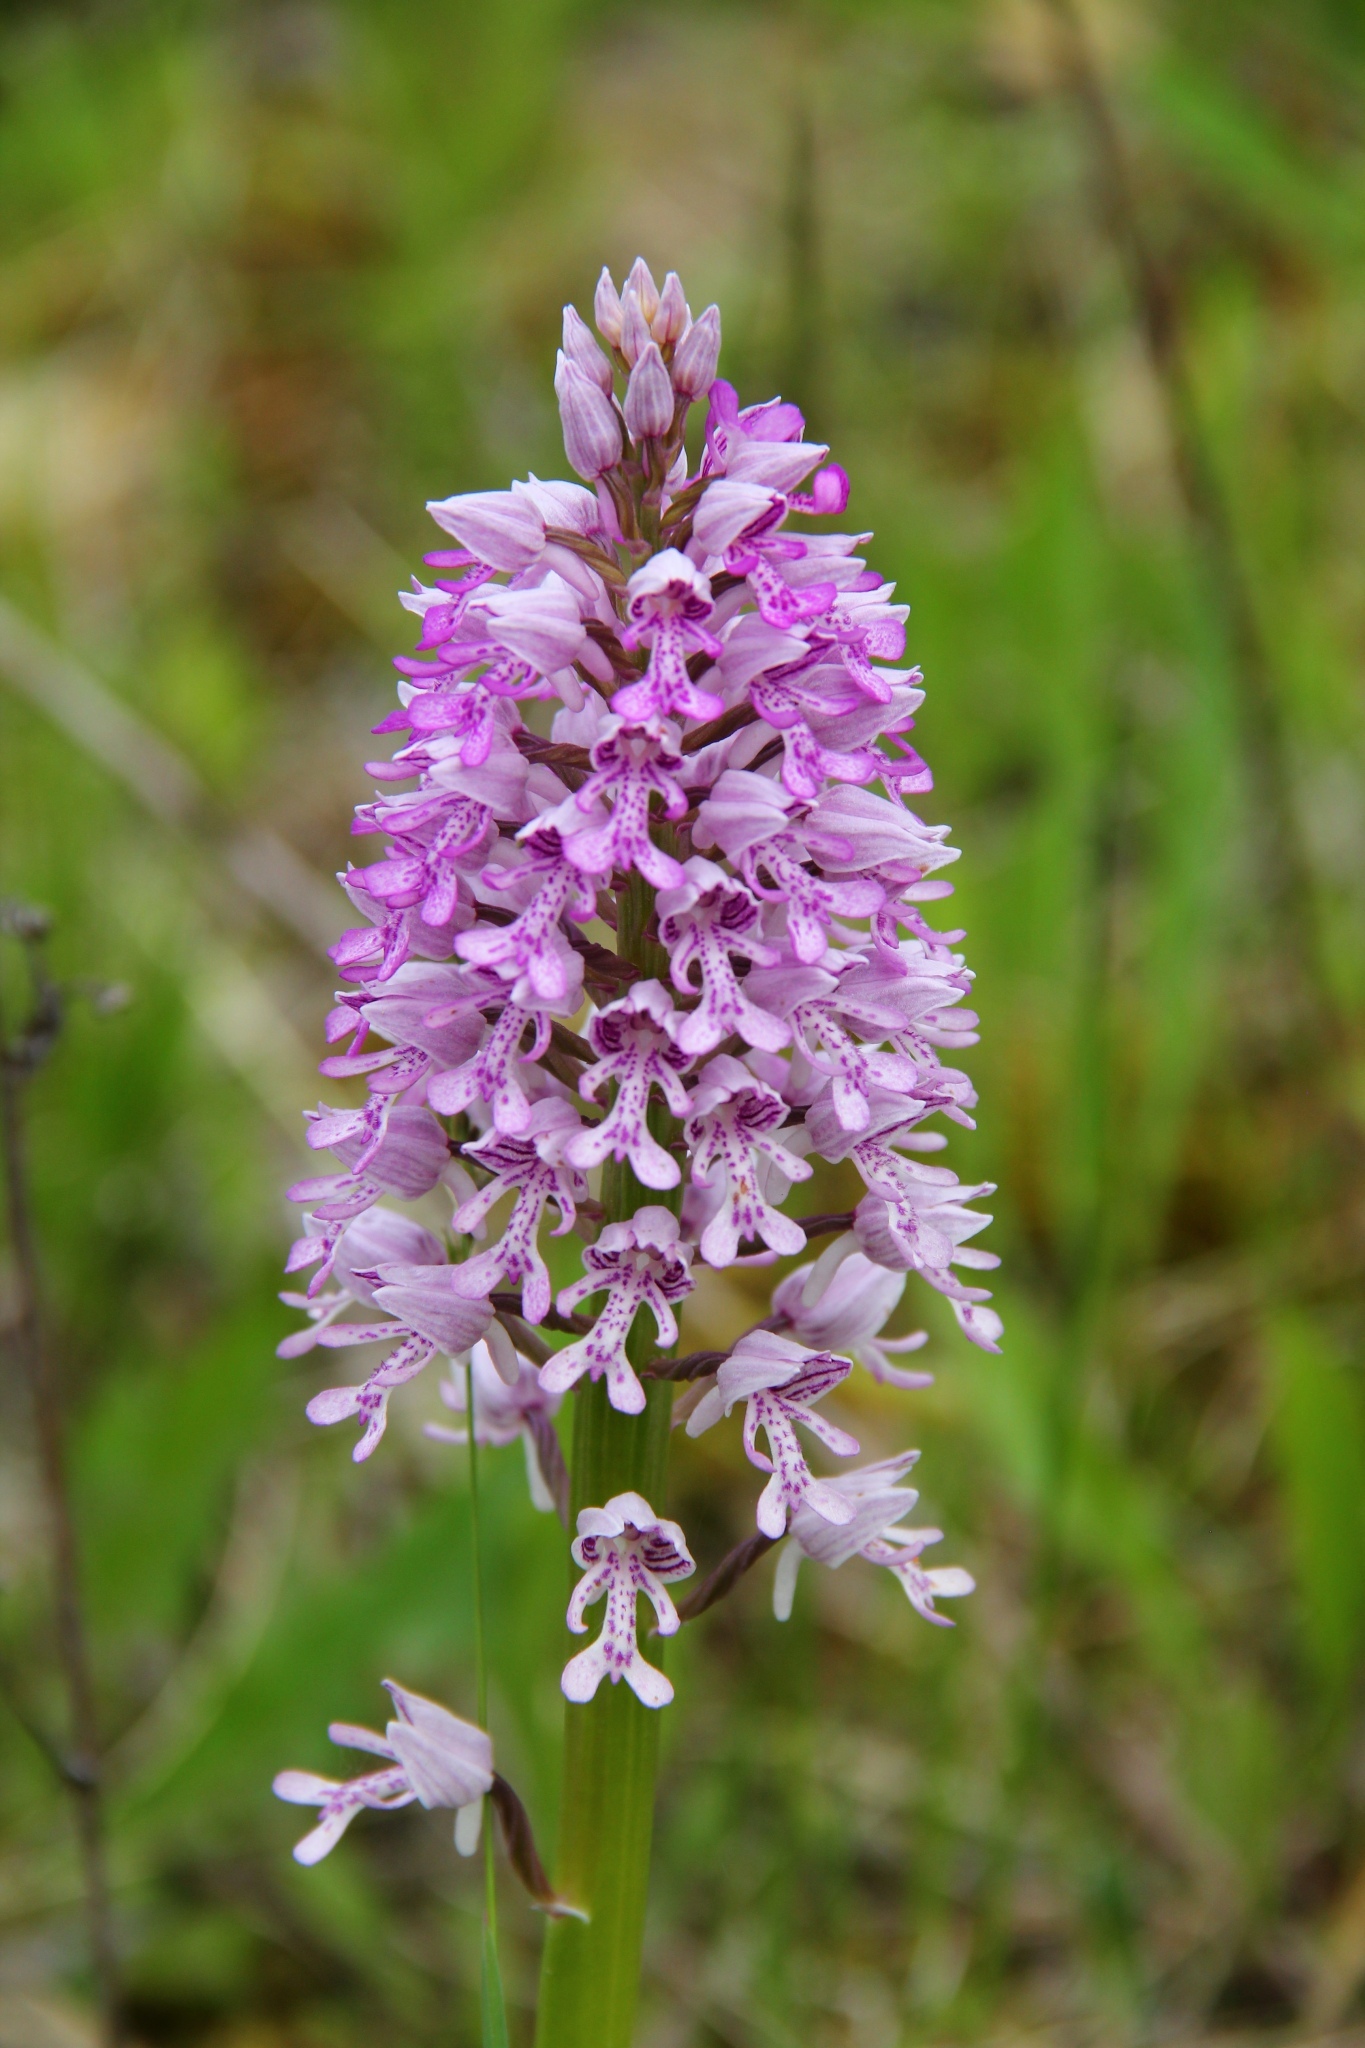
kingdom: Plantae
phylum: Tracheophyta
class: Liliopsida
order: Asparagales
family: Orchidaceae
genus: Orchis
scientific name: Orchis militaris
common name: Military orchid
